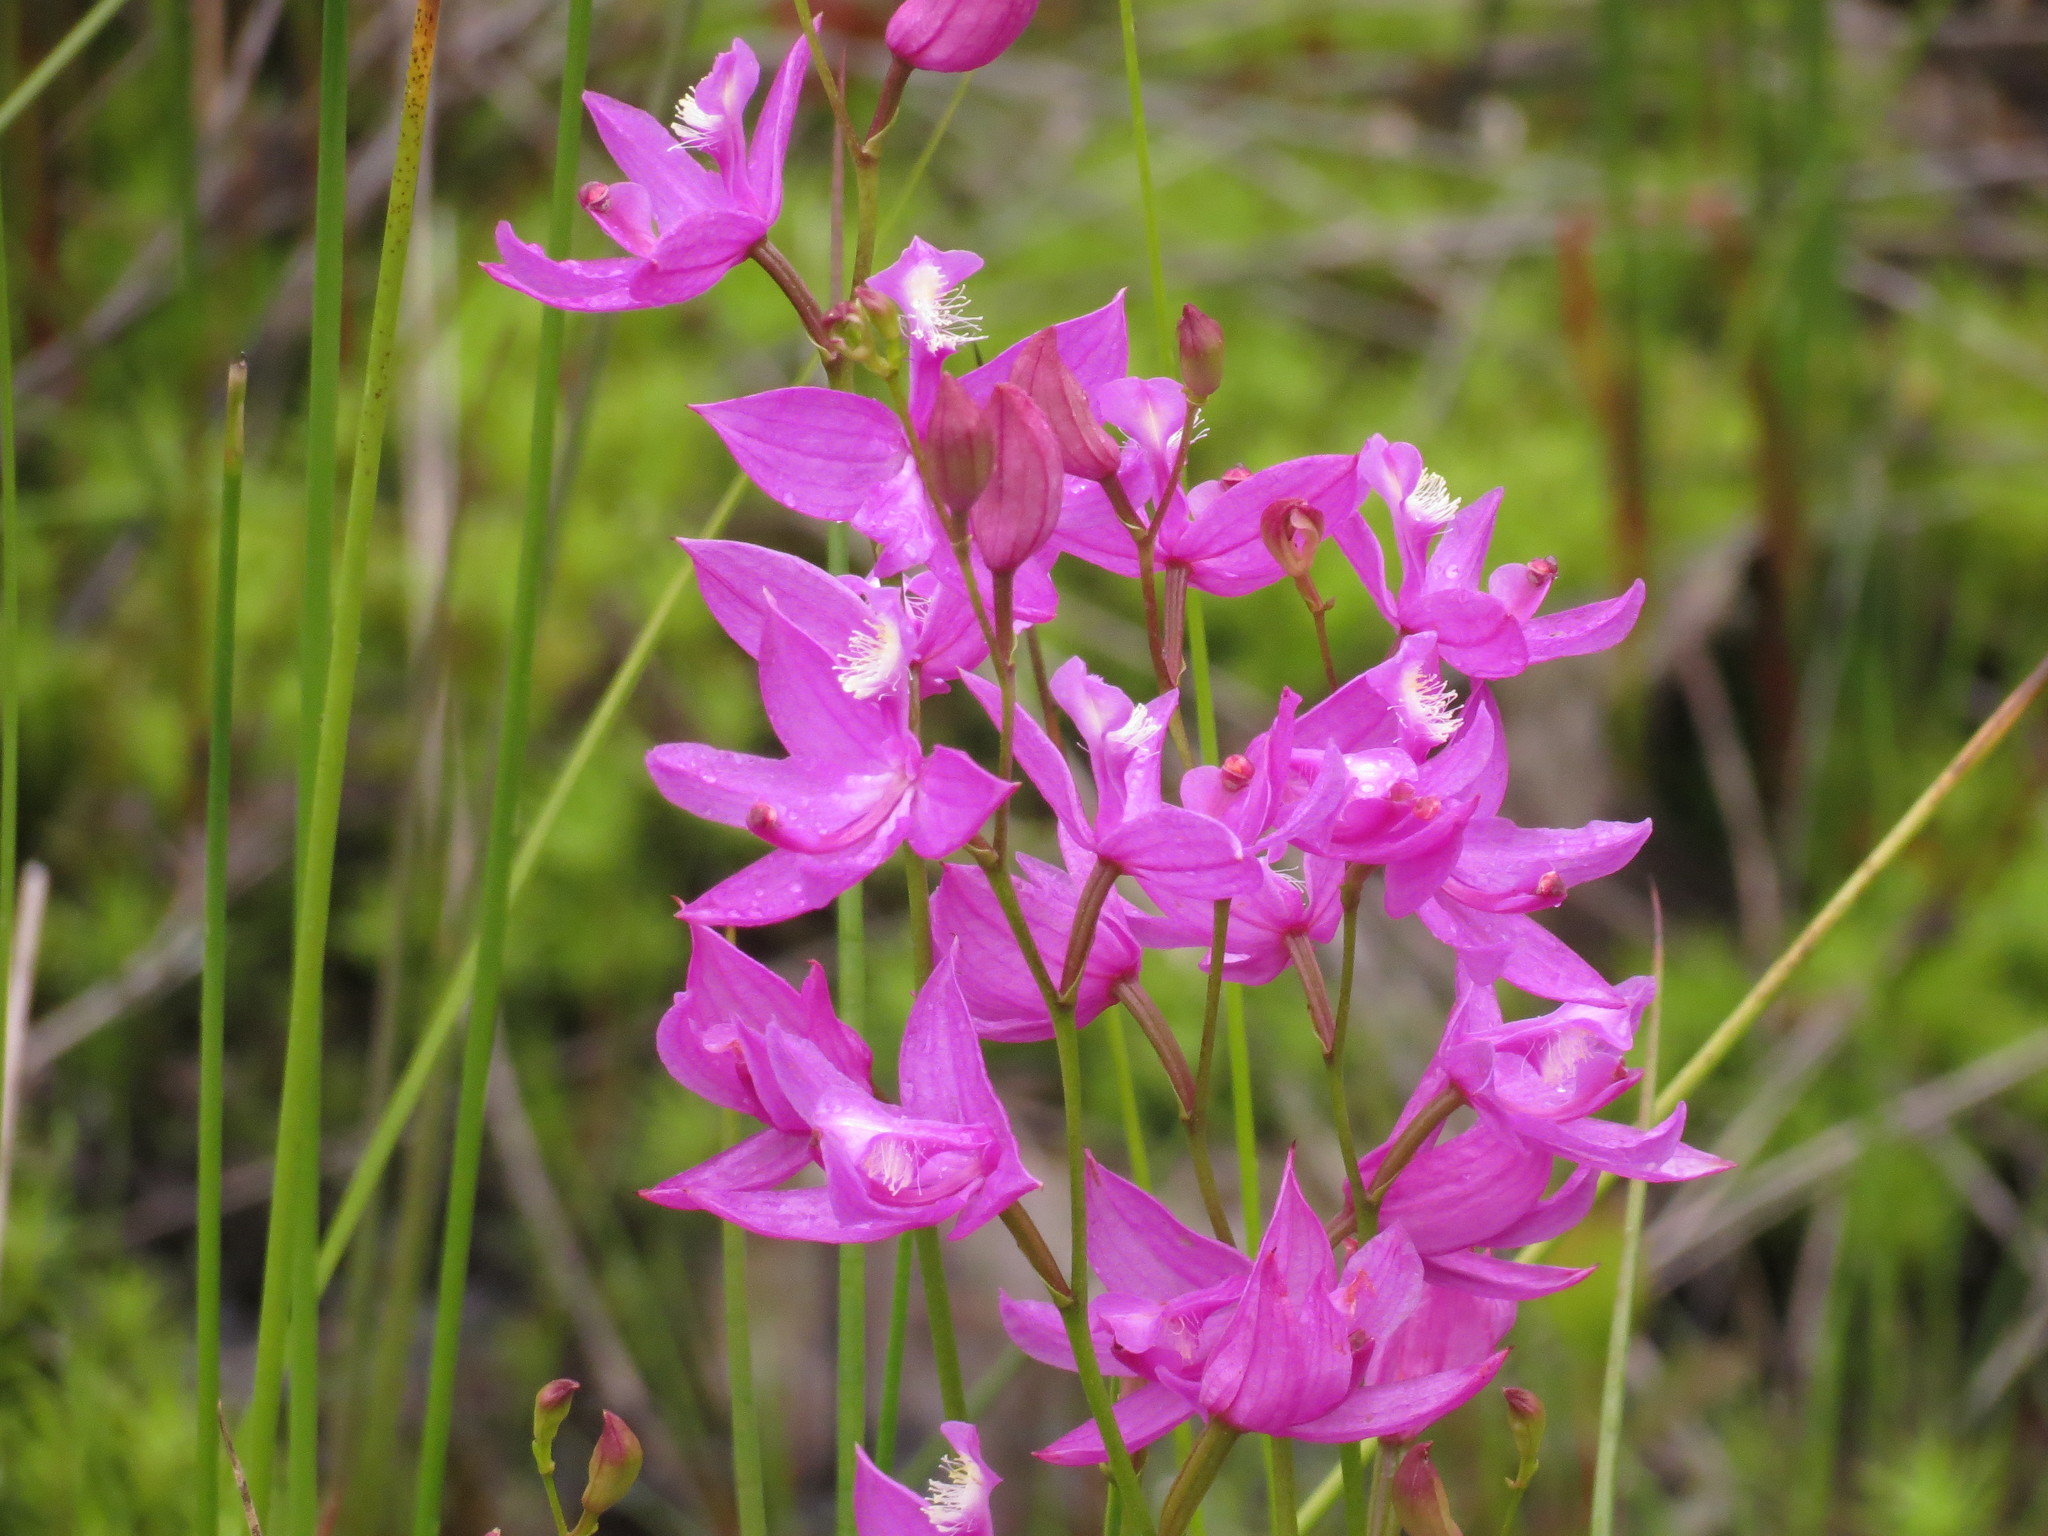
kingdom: Plantae
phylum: Tracheophyta
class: Liliopsida
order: Asparagales
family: Orchidaceae
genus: Calopogon
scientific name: Calopogon tuberosus
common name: Grass-pink
